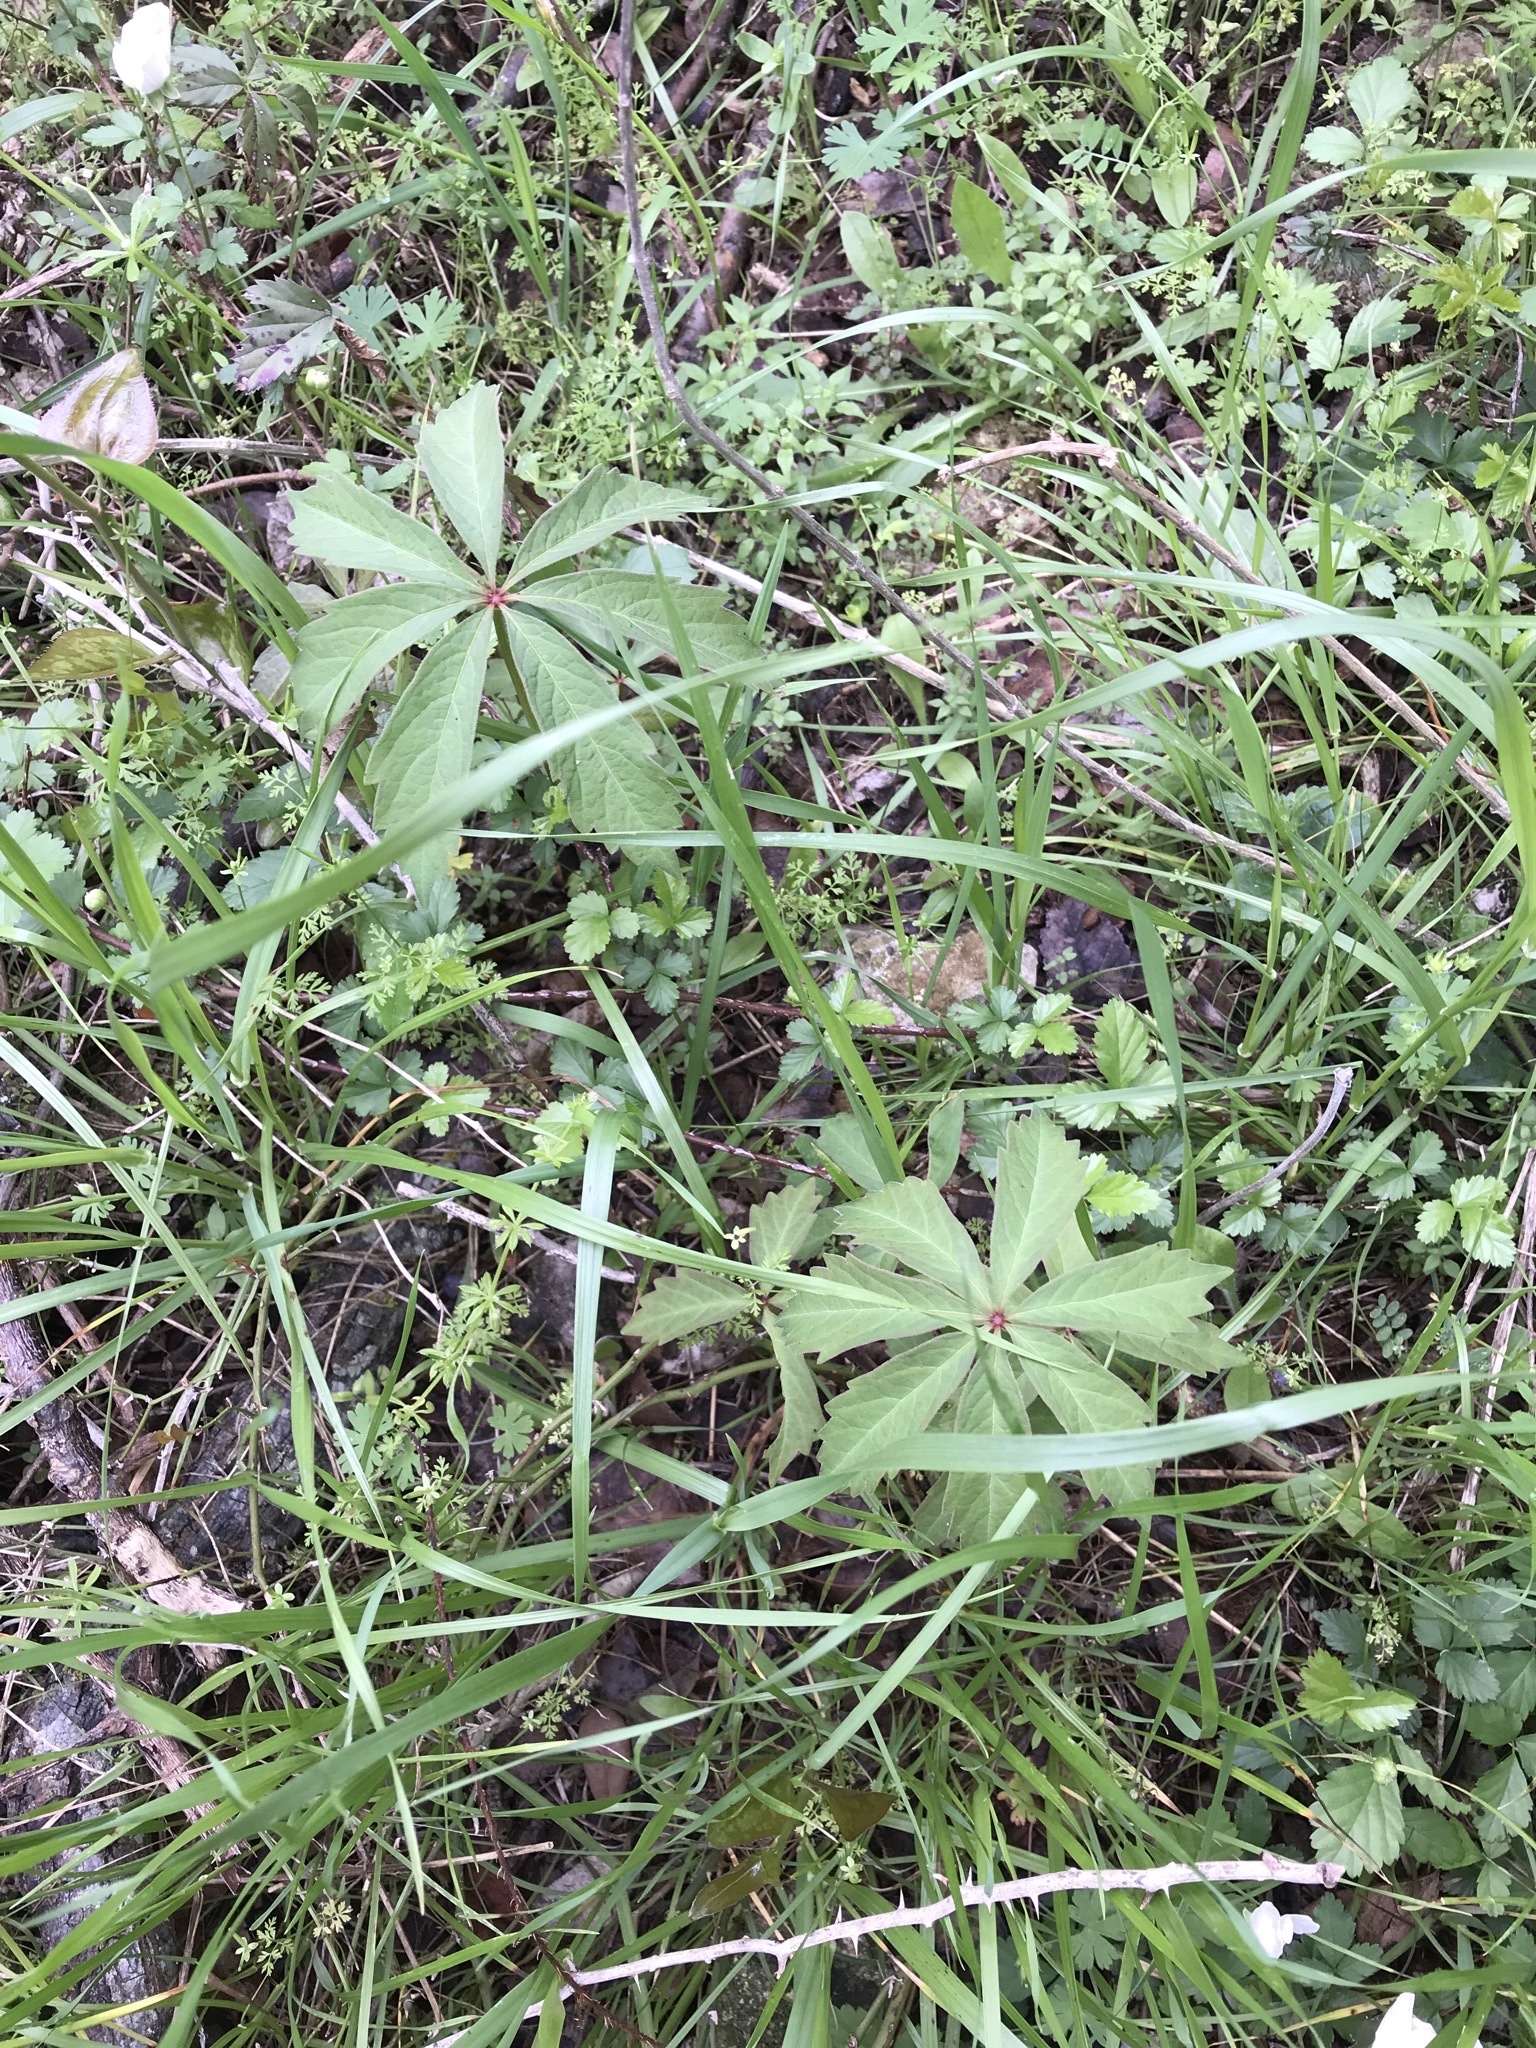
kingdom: Plantae
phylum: Tracheophyta
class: Magnoliopsida
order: Vitales
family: Vitaceae
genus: Parthenocissus
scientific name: Parthenocissus heptaphylla
